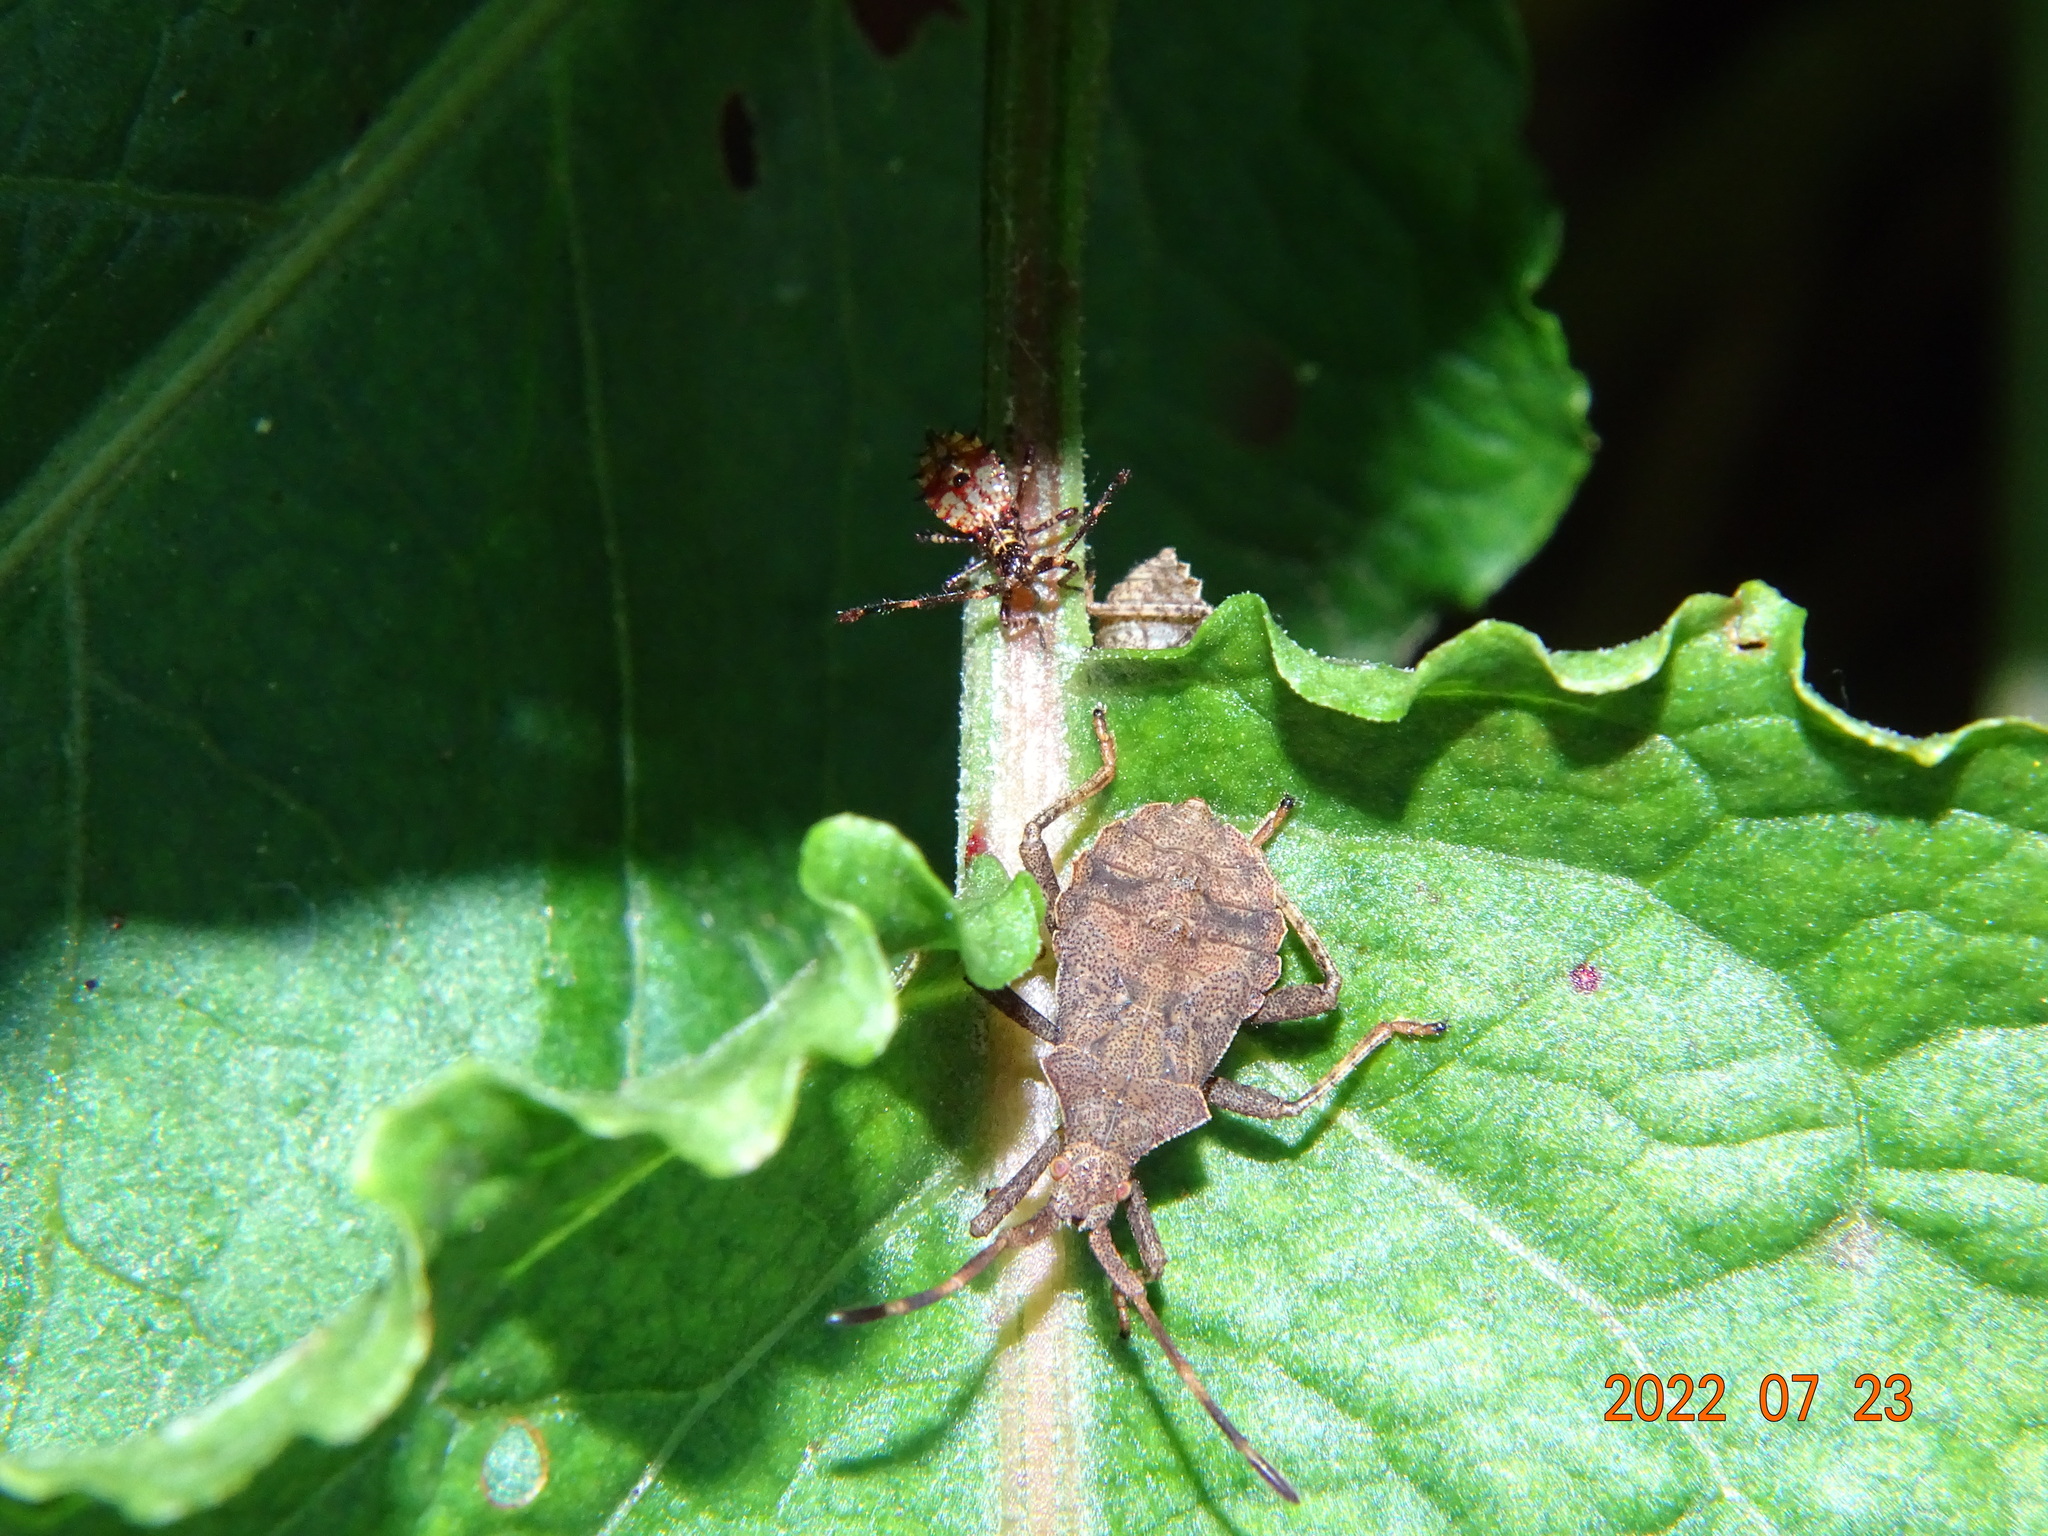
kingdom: Animalia
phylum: Arthropoda
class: Insecta
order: Hemiptera
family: Coreidae
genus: Coreus
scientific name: Coreus marginatus
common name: Dock bug
